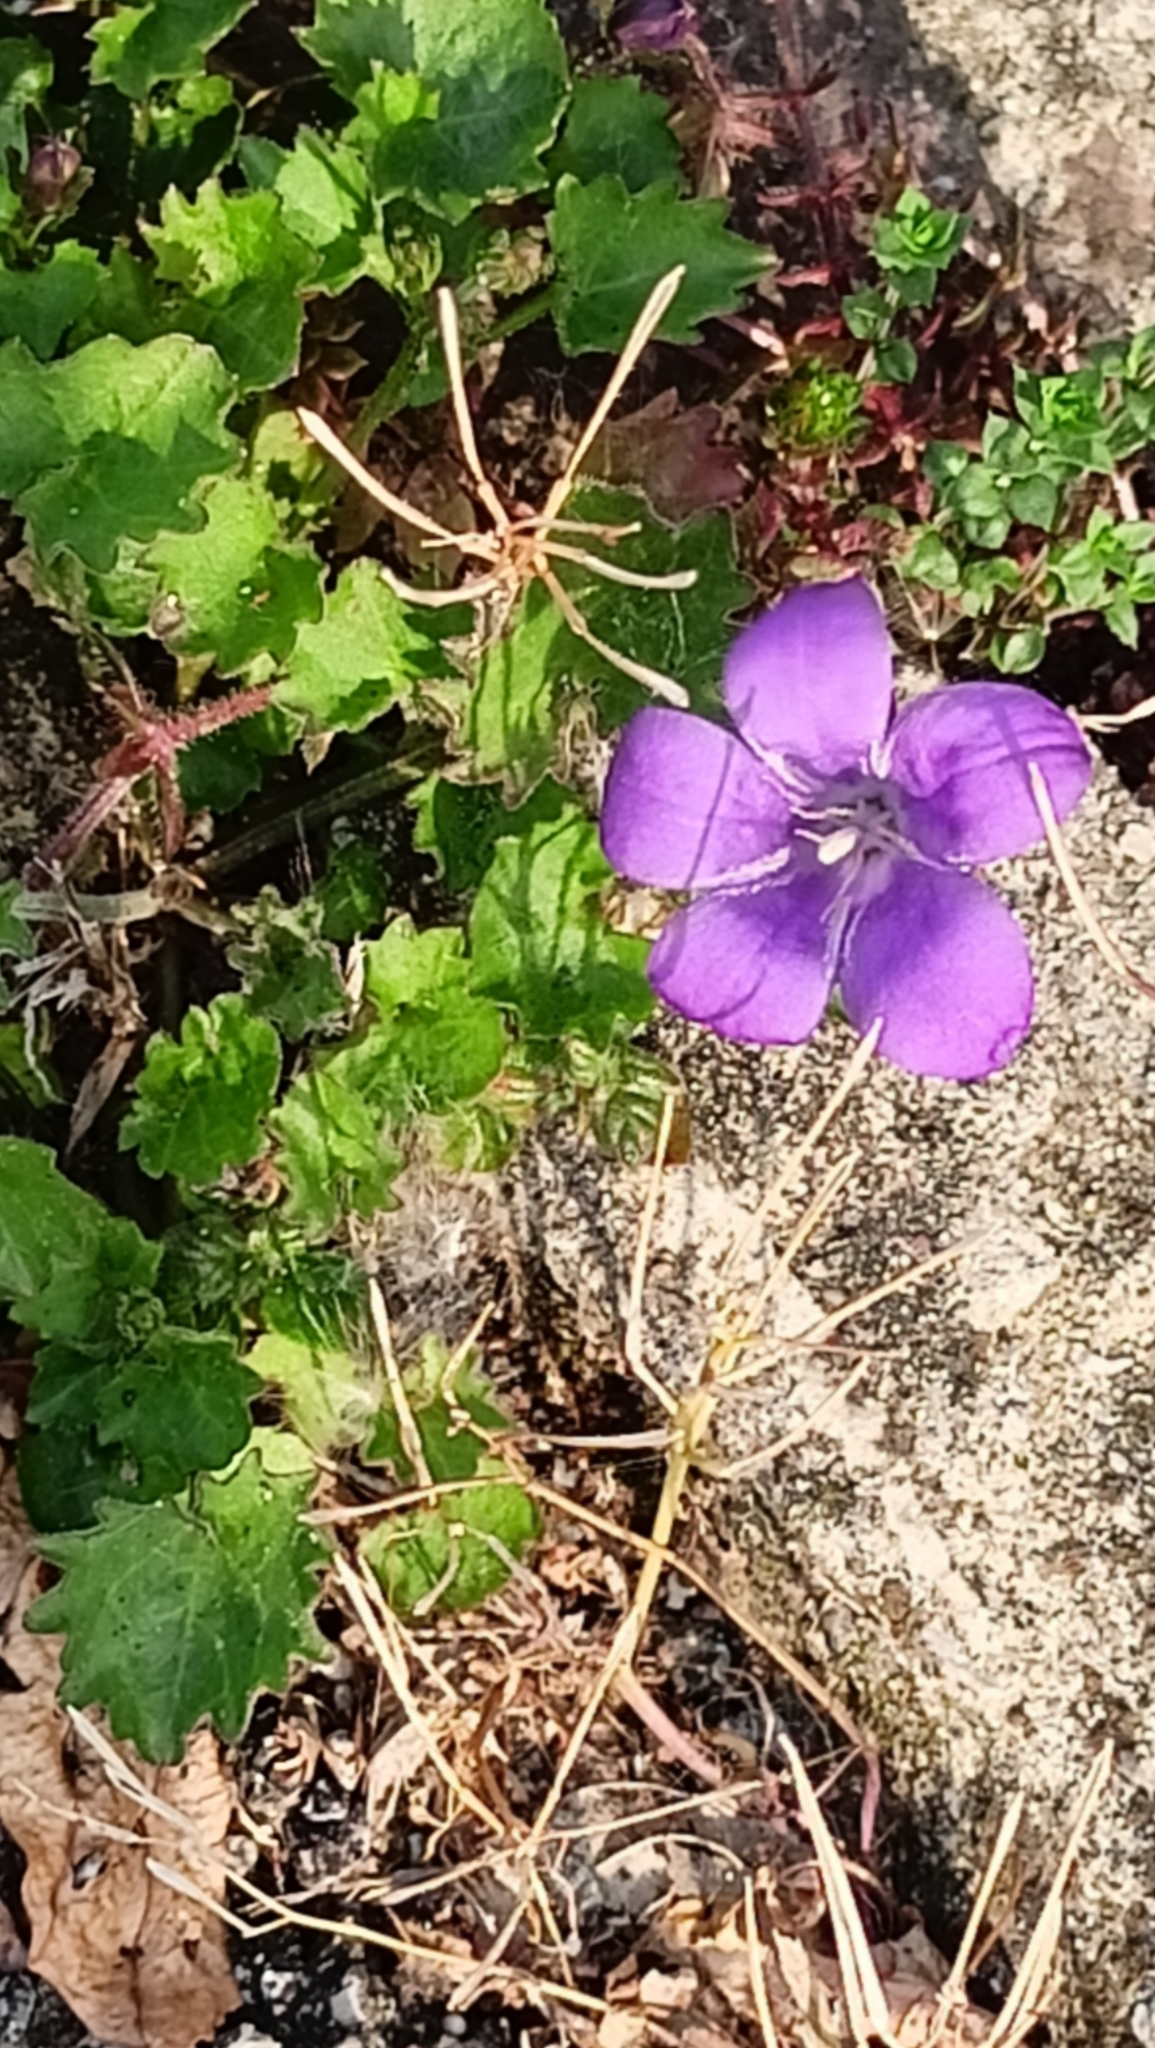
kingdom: Plantae
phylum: Tracheophyta
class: Magnoliopsida
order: Asterales
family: Campanulaceae
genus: Campanula
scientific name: Campanula portenschlagiana
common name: Adria bellflower
